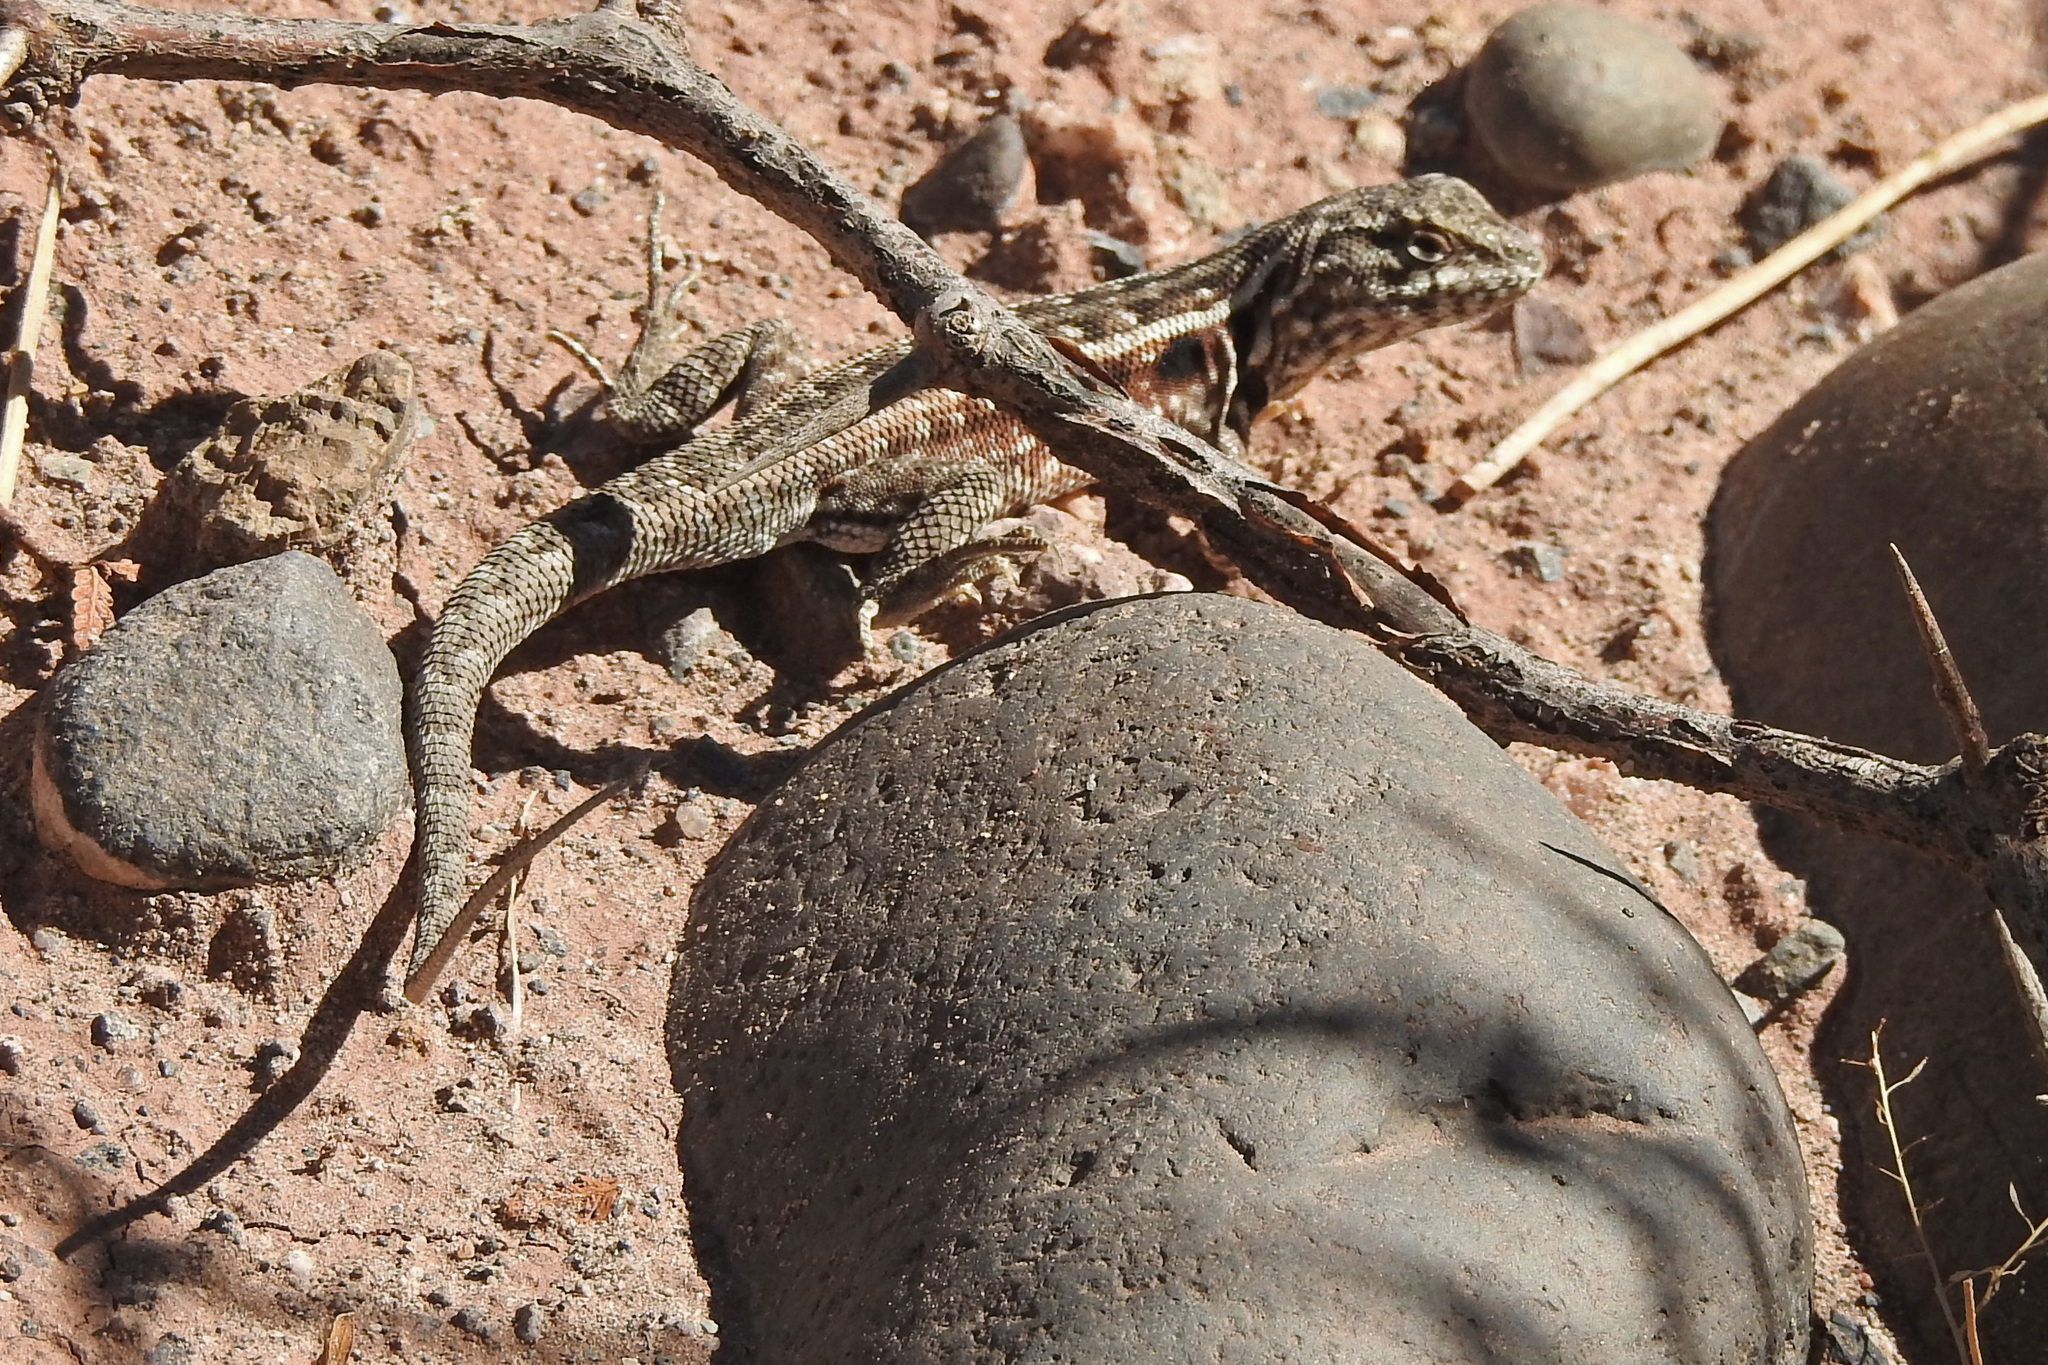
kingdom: Animalia
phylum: Chordata
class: Squamata
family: Liolaemidae
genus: Liolaemus
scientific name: Liolaemus darwinii
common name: Darwin's tree iguana
